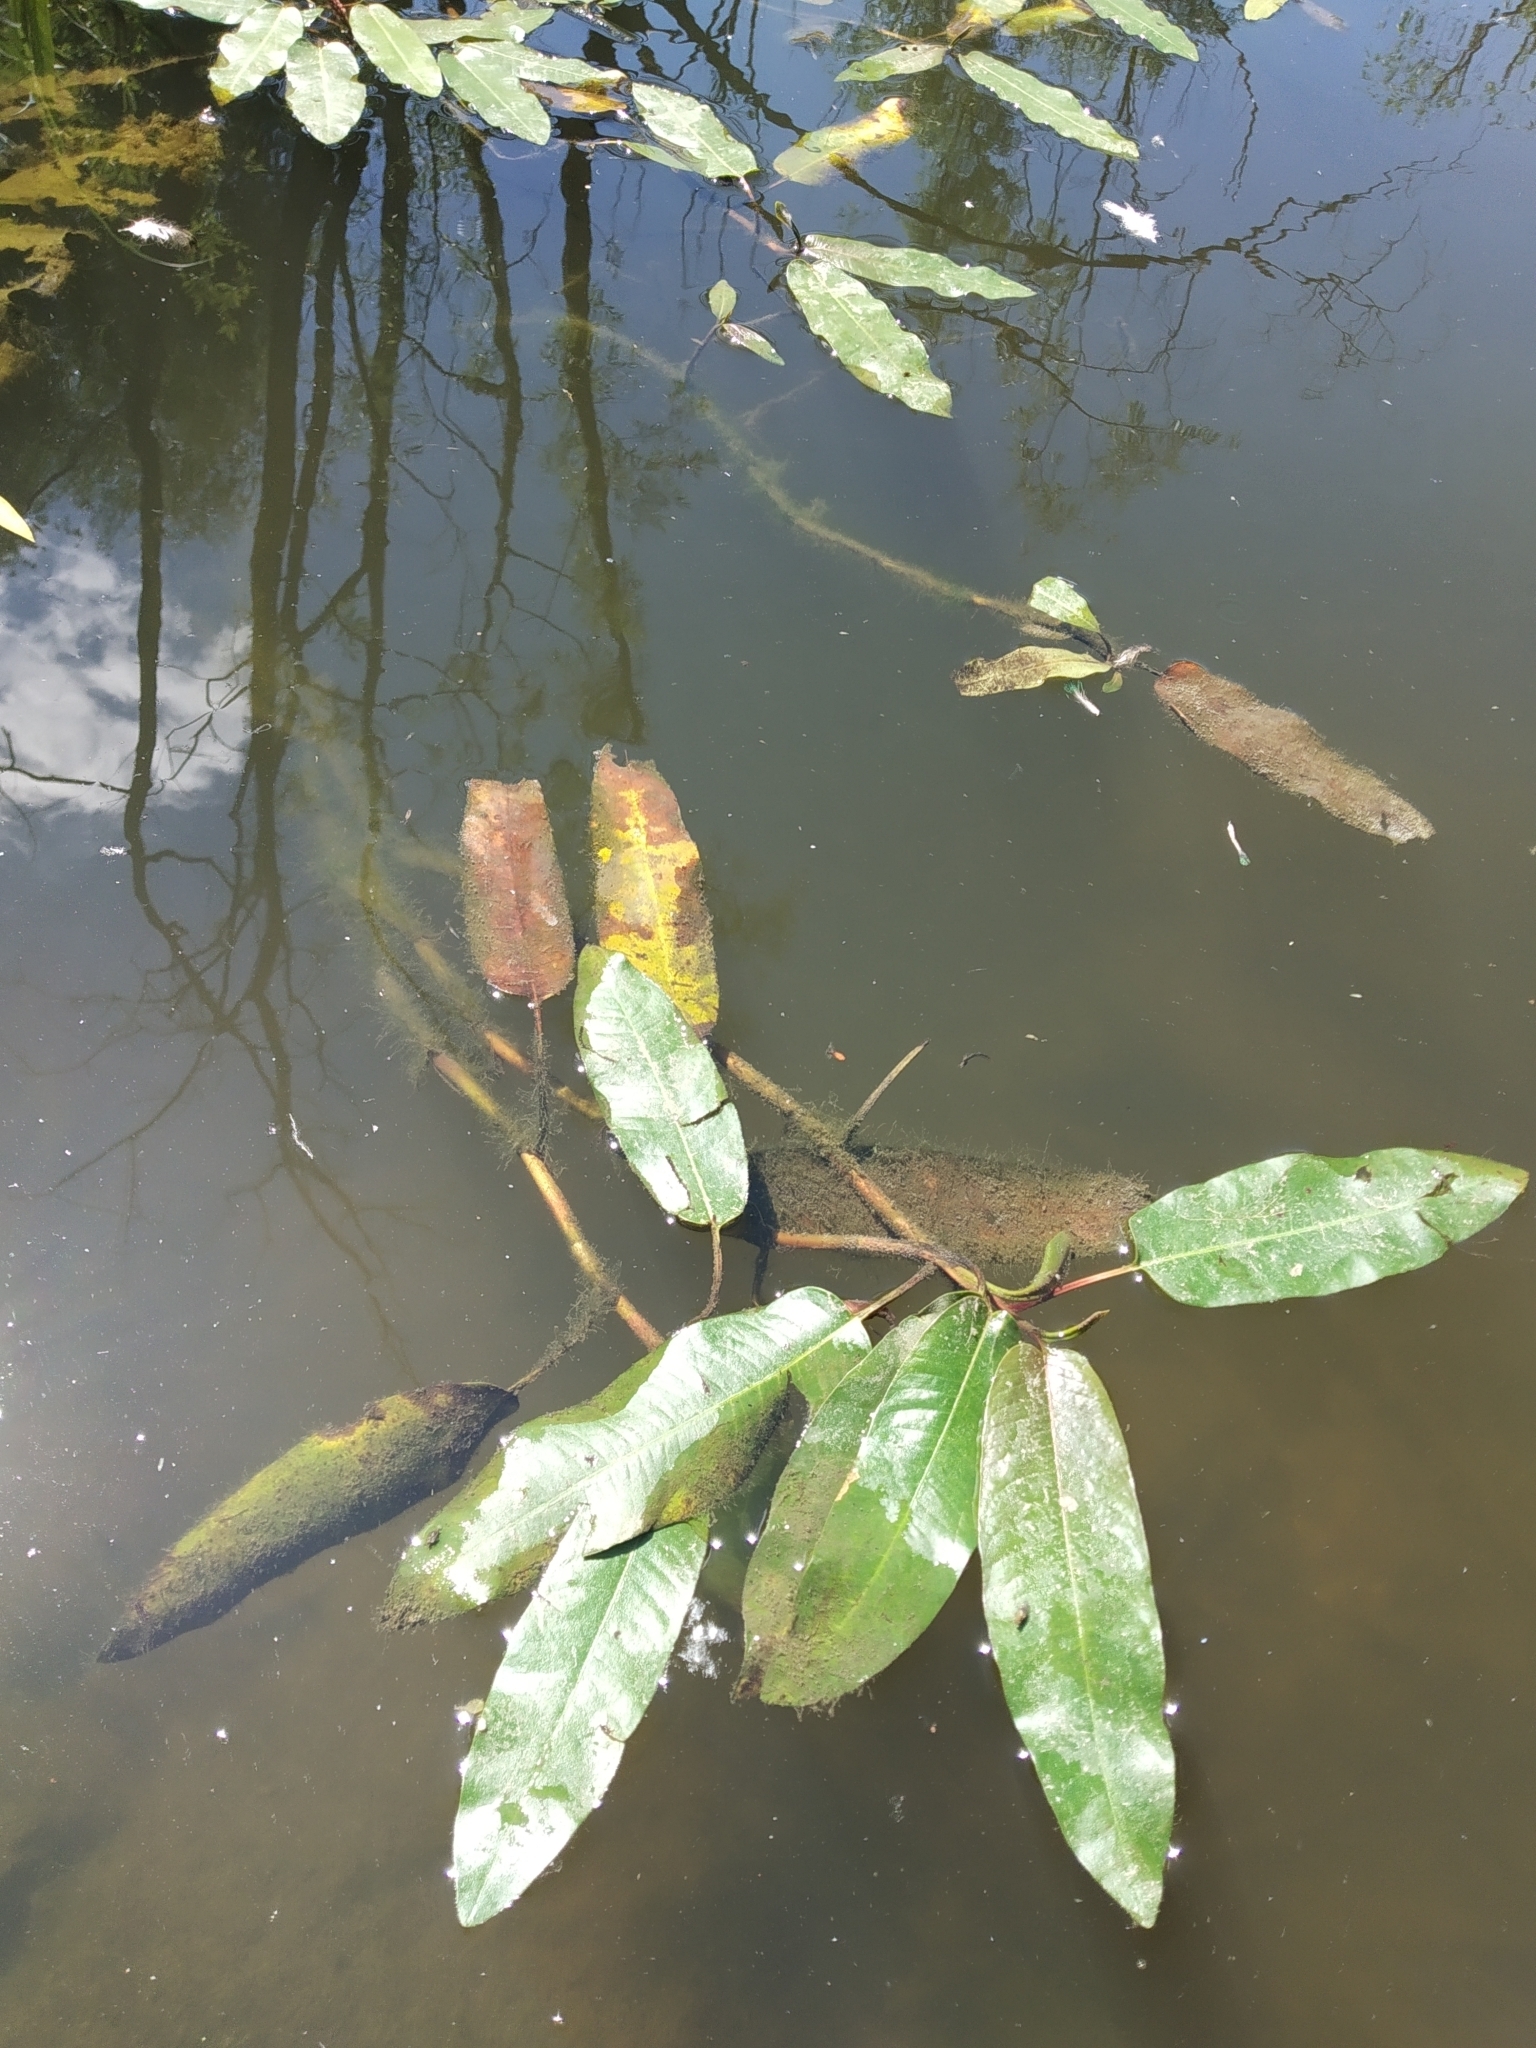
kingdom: Plantae
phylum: Tracheophyta
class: Magnoliopsida
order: Caryophyllales
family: Polygonaceae
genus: Persicaria
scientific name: Persicaria amphibia
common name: Amphibious bistort
